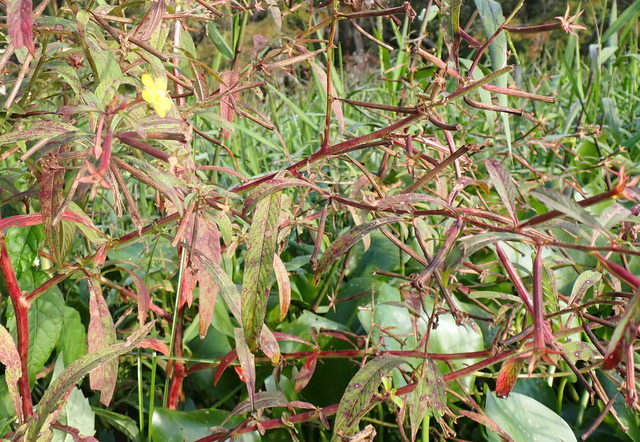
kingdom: Plantae
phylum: Tracheophyta
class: Magnoliopsida
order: Myrtales
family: Onagraceae
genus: Ludwigia
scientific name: Ludwigia leptocarpa
